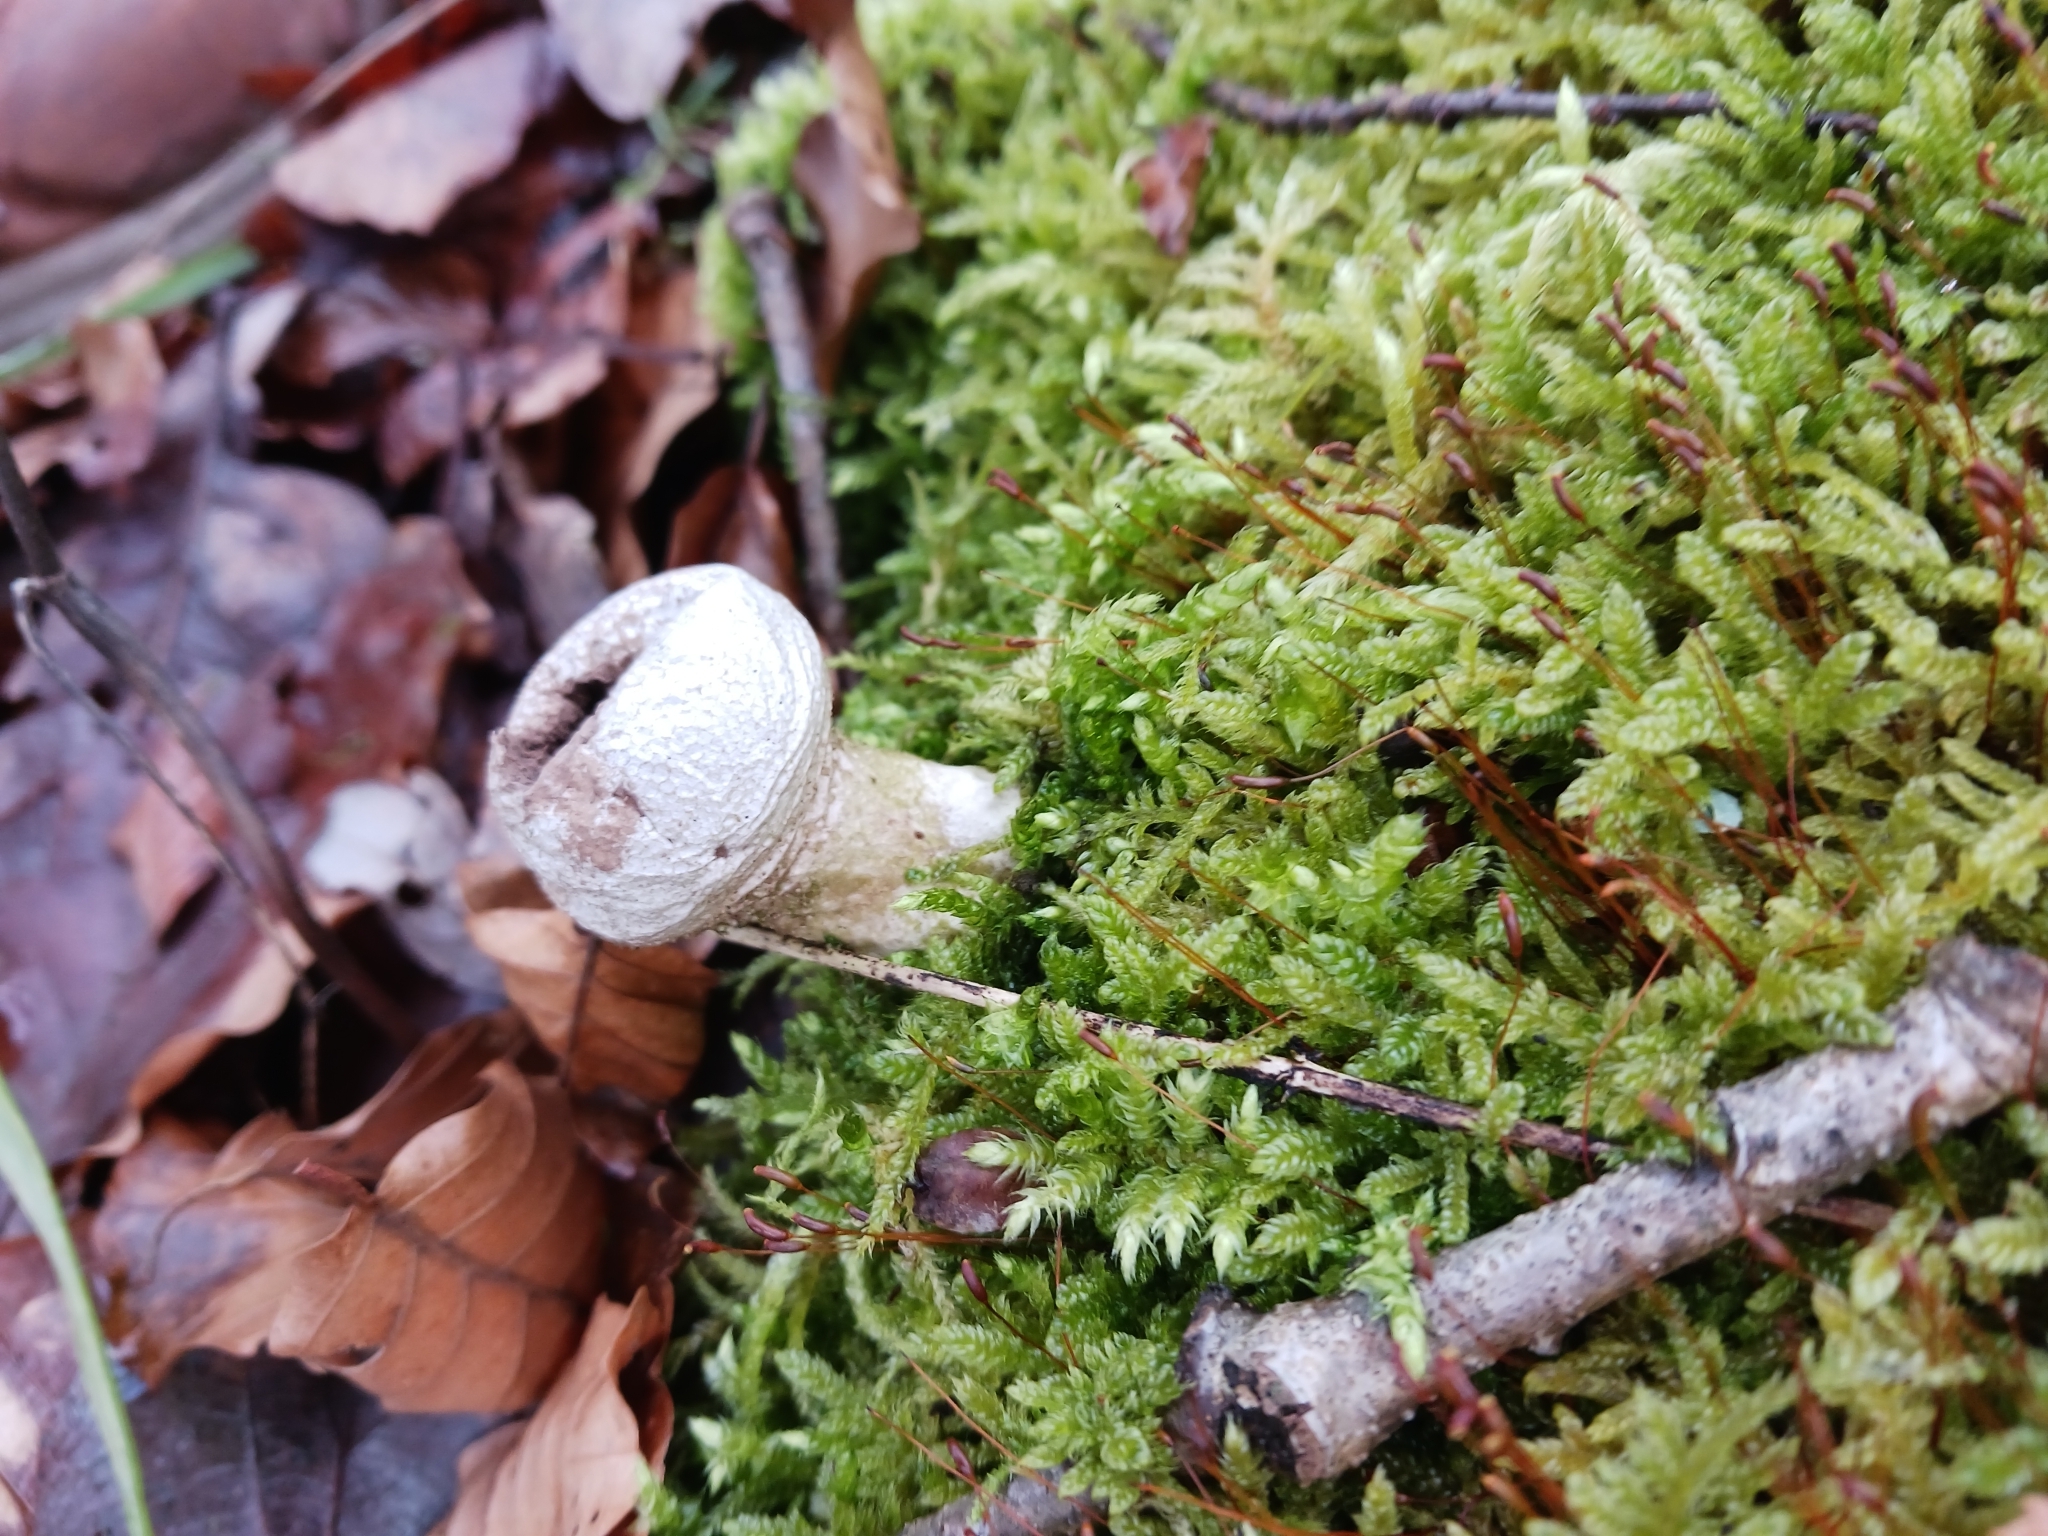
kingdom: Fungi
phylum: Basidiomycota
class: Agaricomycetes
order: Agaricales
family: Lycoperdaceae
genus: Lycoperdon
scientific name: Lycoperdon perlatum
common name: Common puffball
